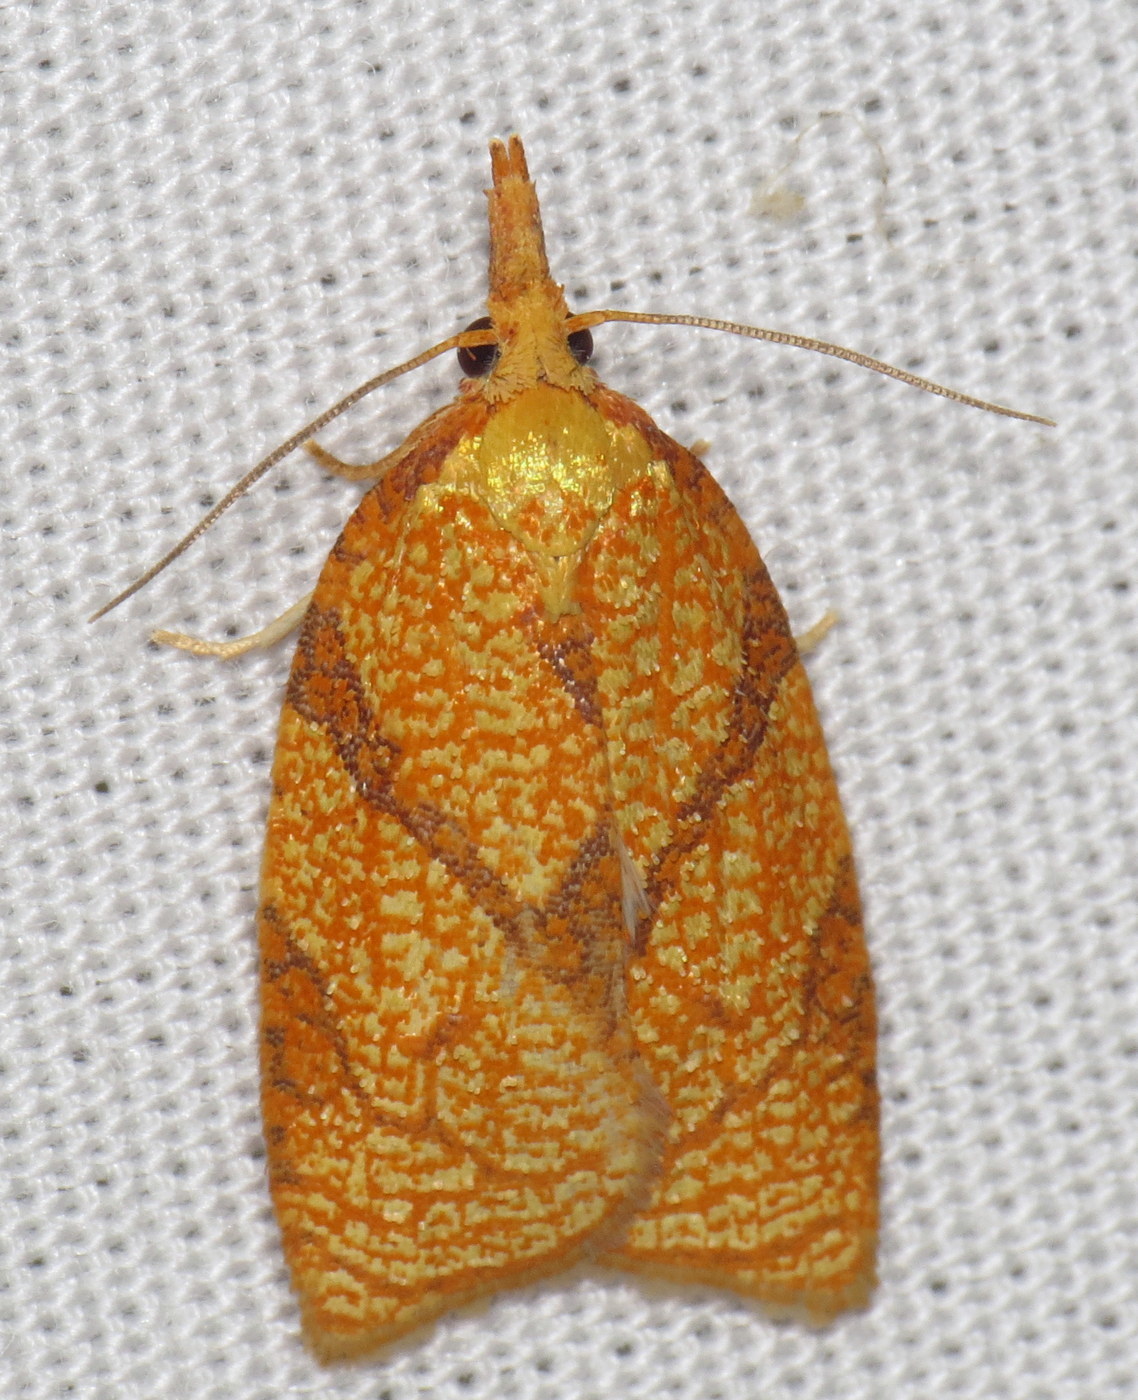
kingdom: Animalia
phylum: Arthropoda
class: Insecta
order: Lepidoptera
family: Tortricidae
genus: Cenopis
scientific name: Cenopis reticulatana
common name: Reticulated fruitworm moth
